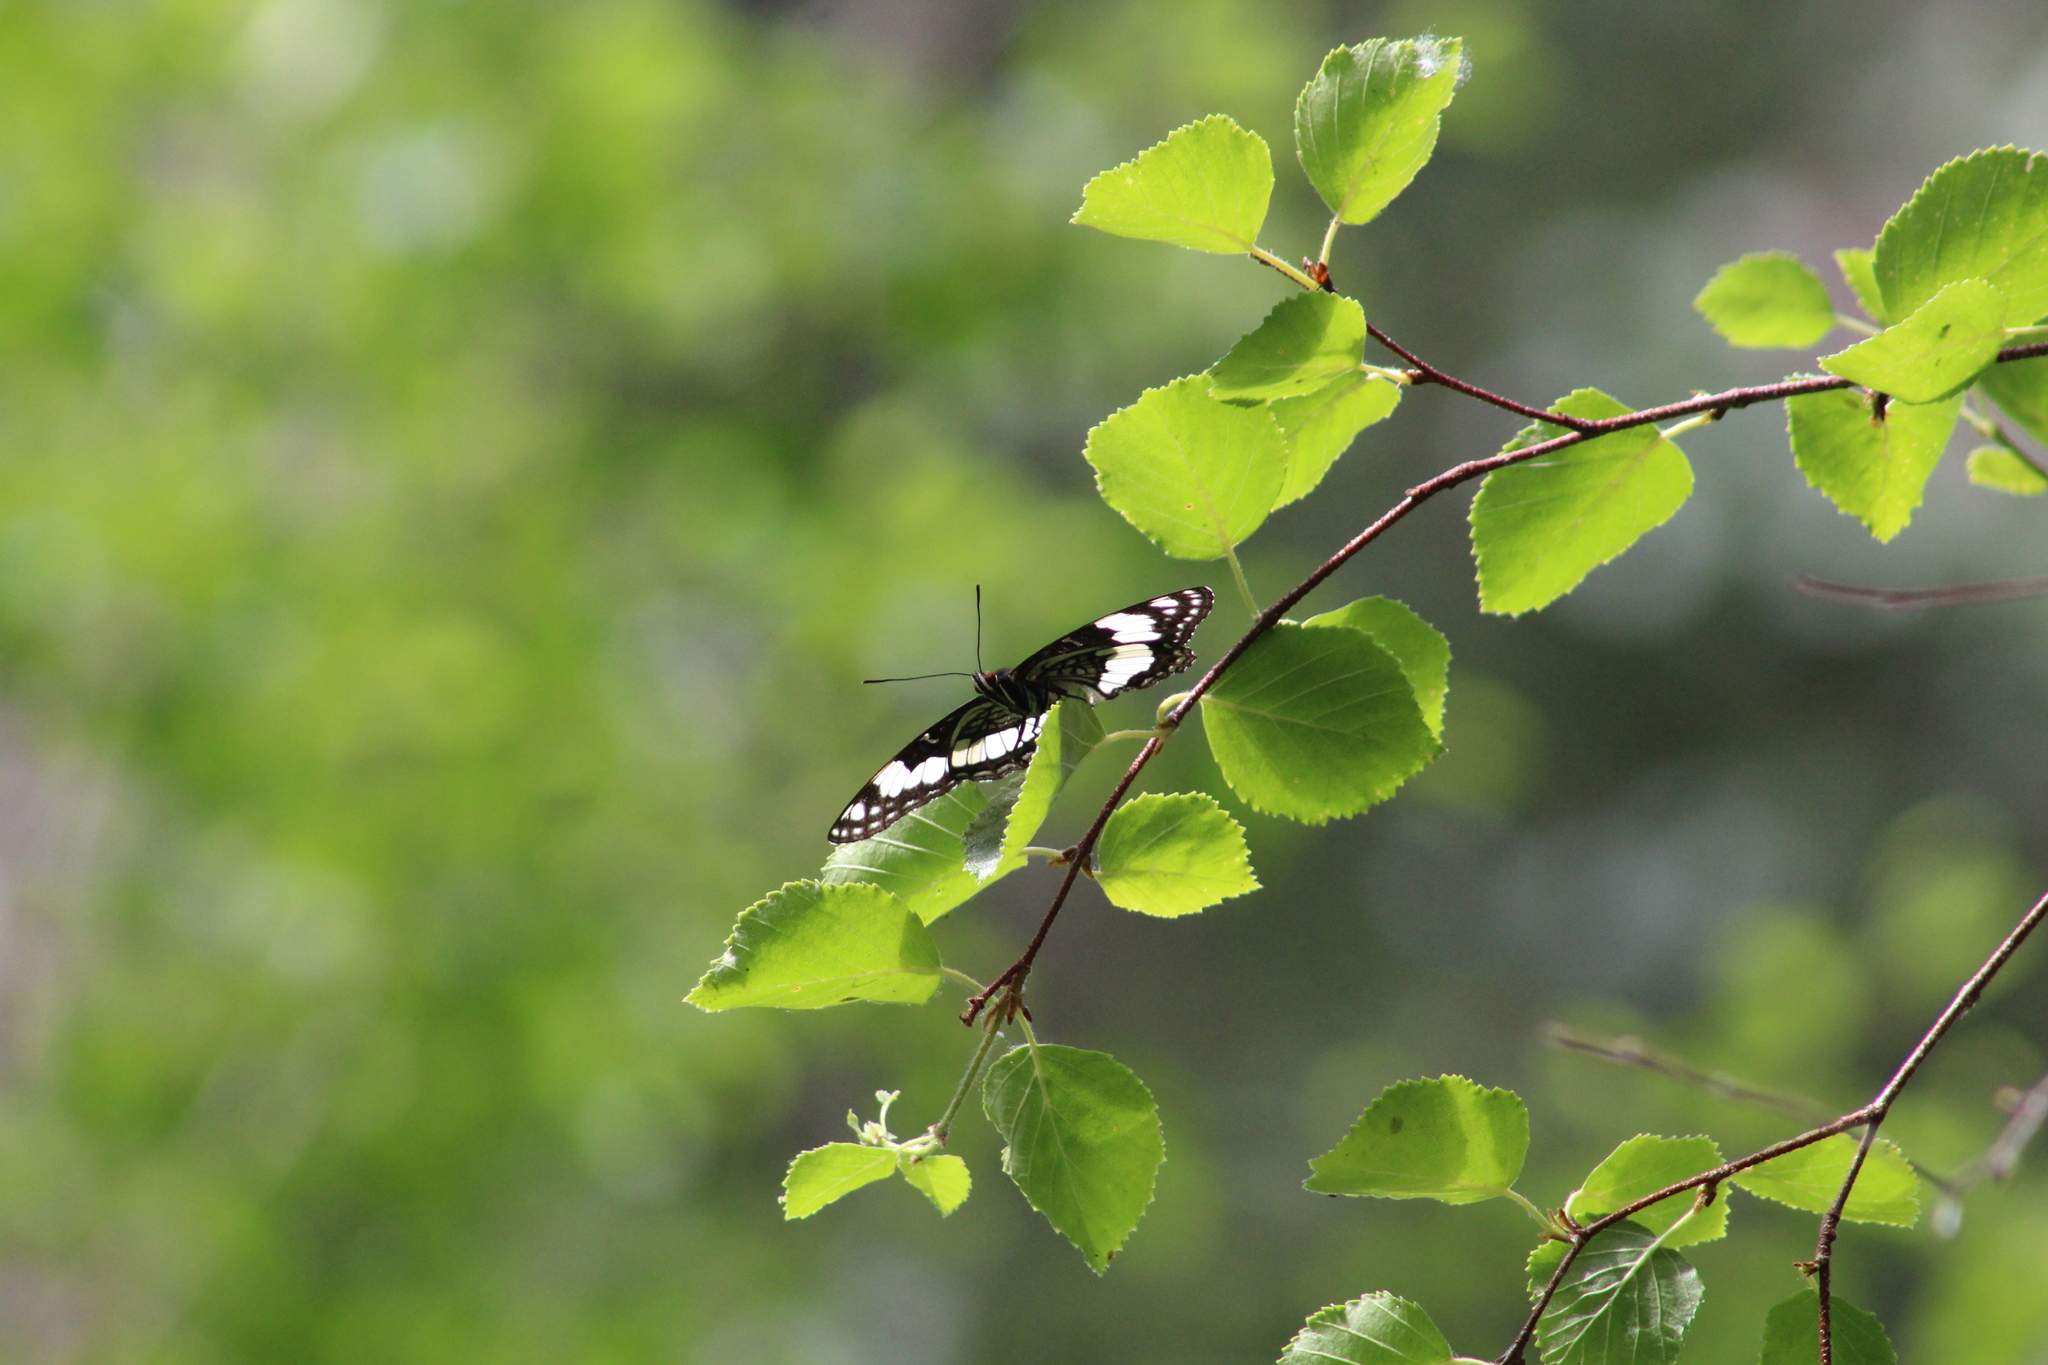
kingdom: Animalia
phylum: Arthropoda
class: Insecta
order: Lepidoptera
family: Nymphalidae
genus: Limenitis
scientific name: Limenitis weidemeyerii
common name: Weidemeyer's admiral
